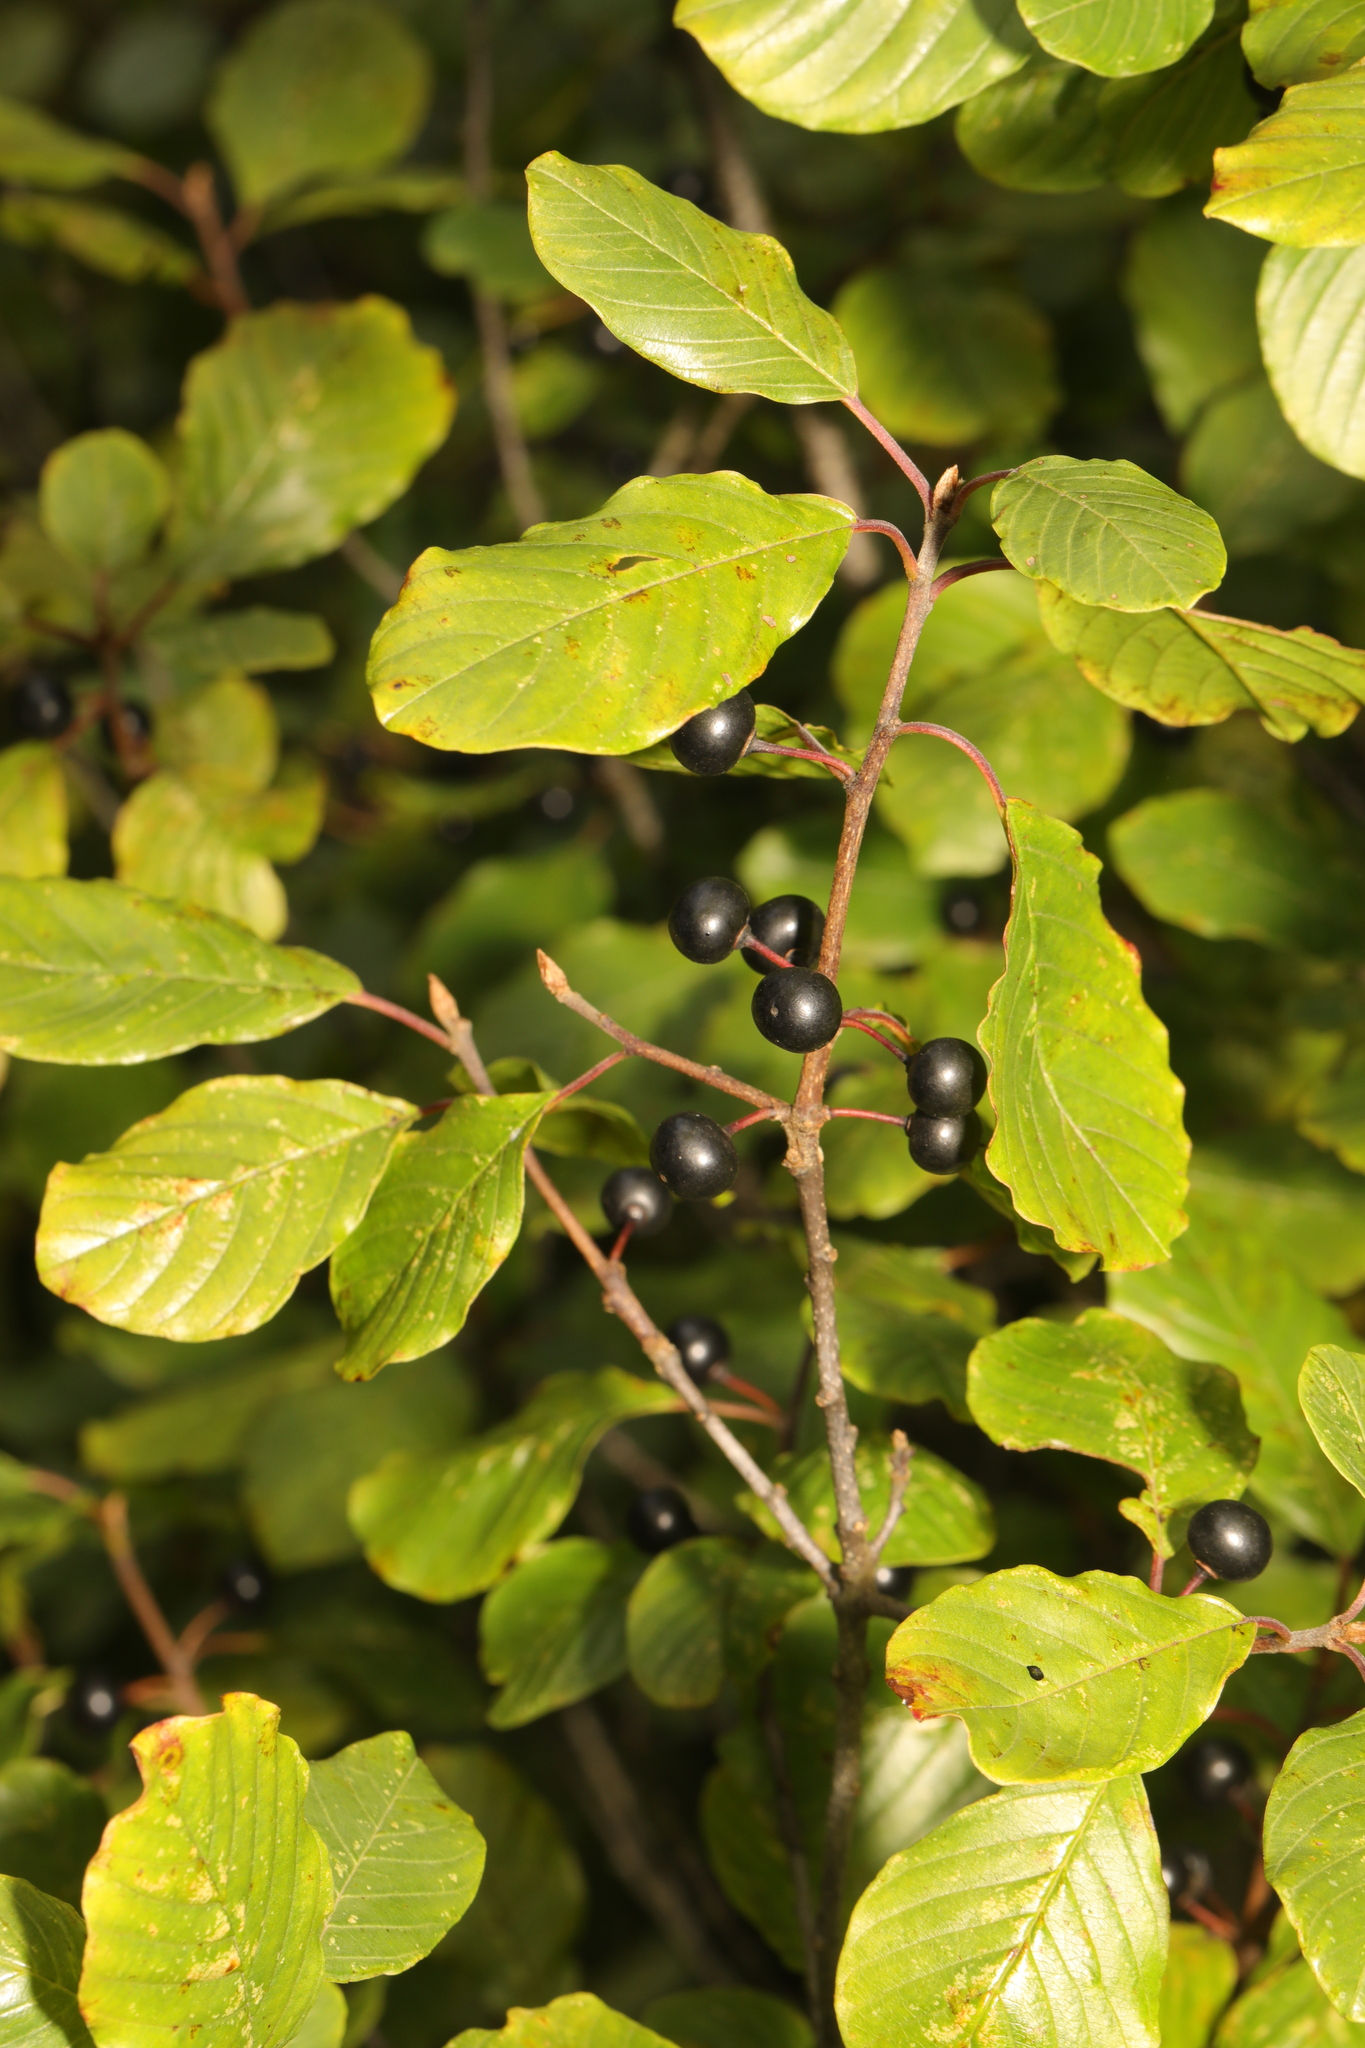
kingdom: Plantae
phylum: Tracheophyta
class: Magnoliopsida
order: Rosales
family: Rhamnaceae
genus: Frangula
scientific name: Frangula alnus
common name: Alder buckthorn
